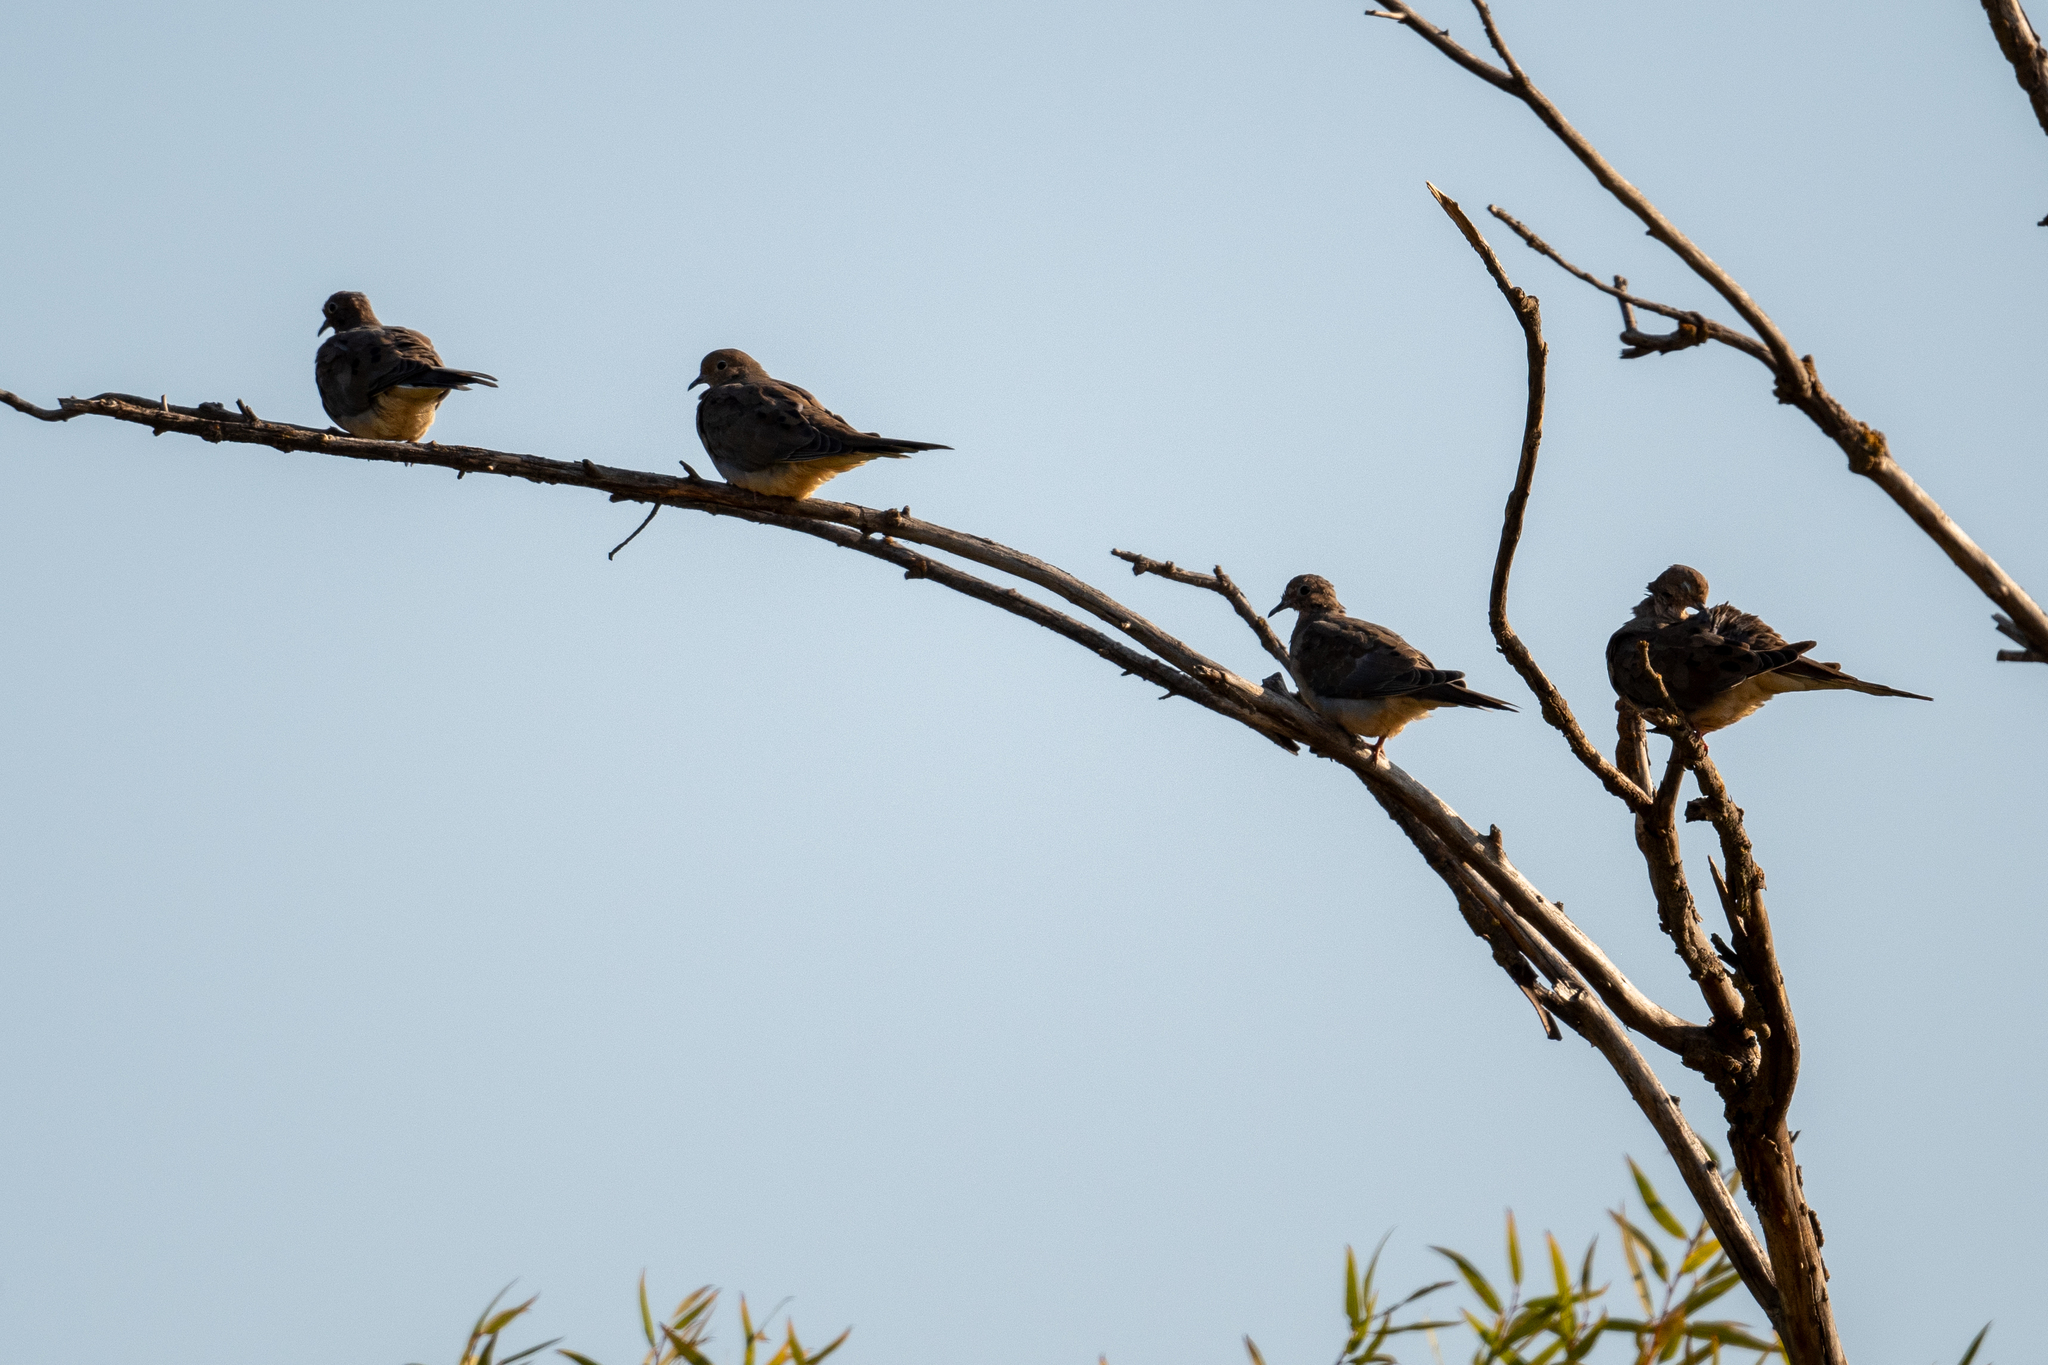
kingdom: Animalia
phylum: Chordata
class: Aves
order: Columbiformes
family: Columbidae
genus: Zenaida
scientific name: Zenaida macroura
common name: Mourning dove
